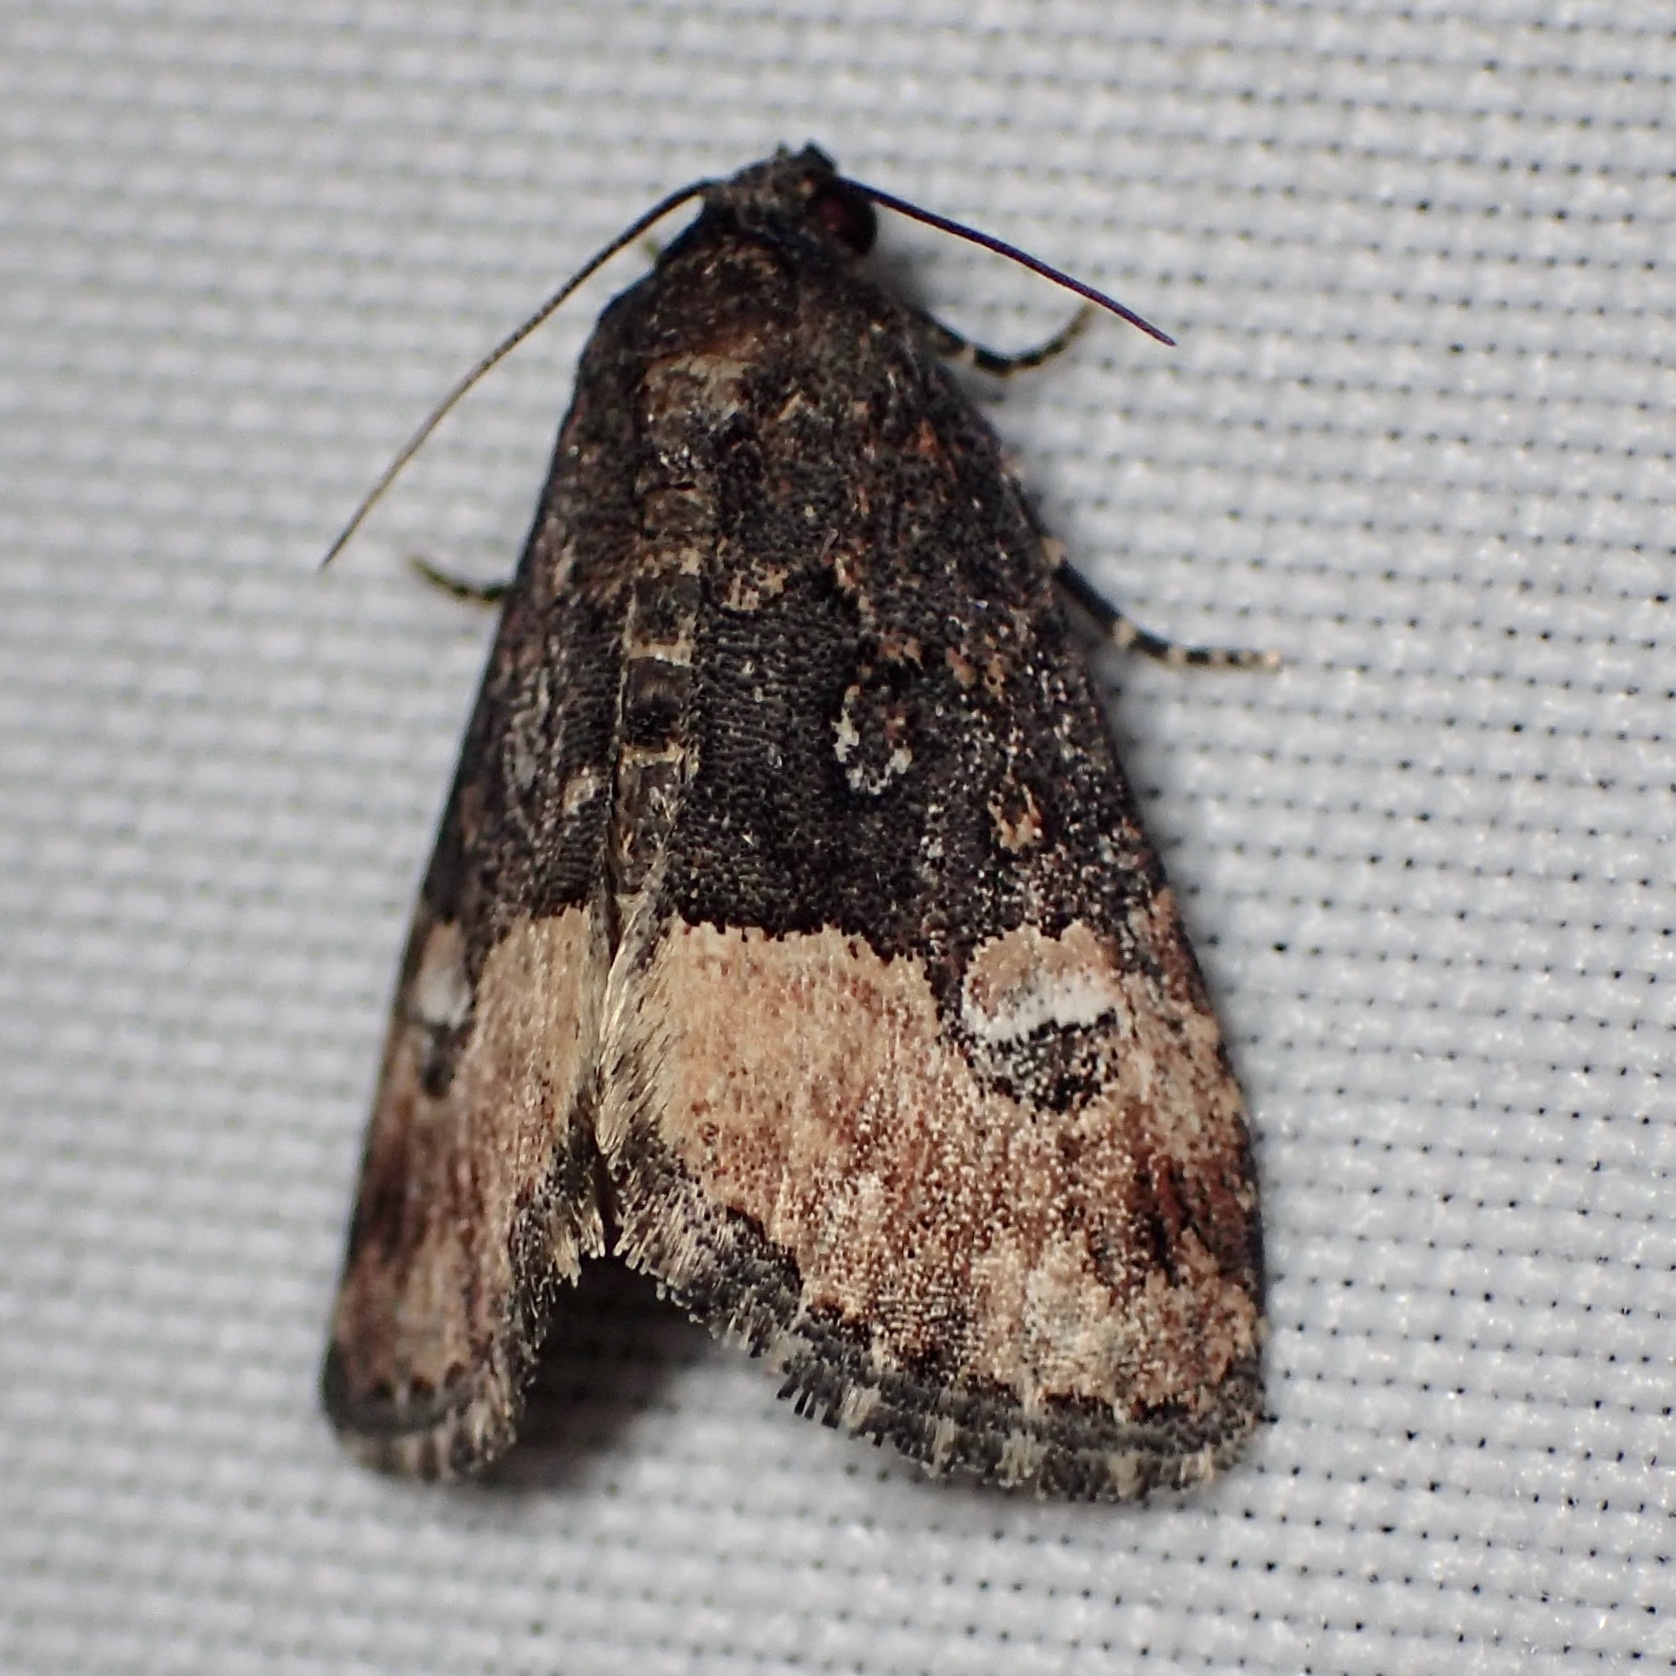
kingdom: Animalia
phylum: Arthropoda
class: Insecta
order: Lepidoptera
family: Noctuidae
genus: Ozarba
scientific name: Ozarba propera
